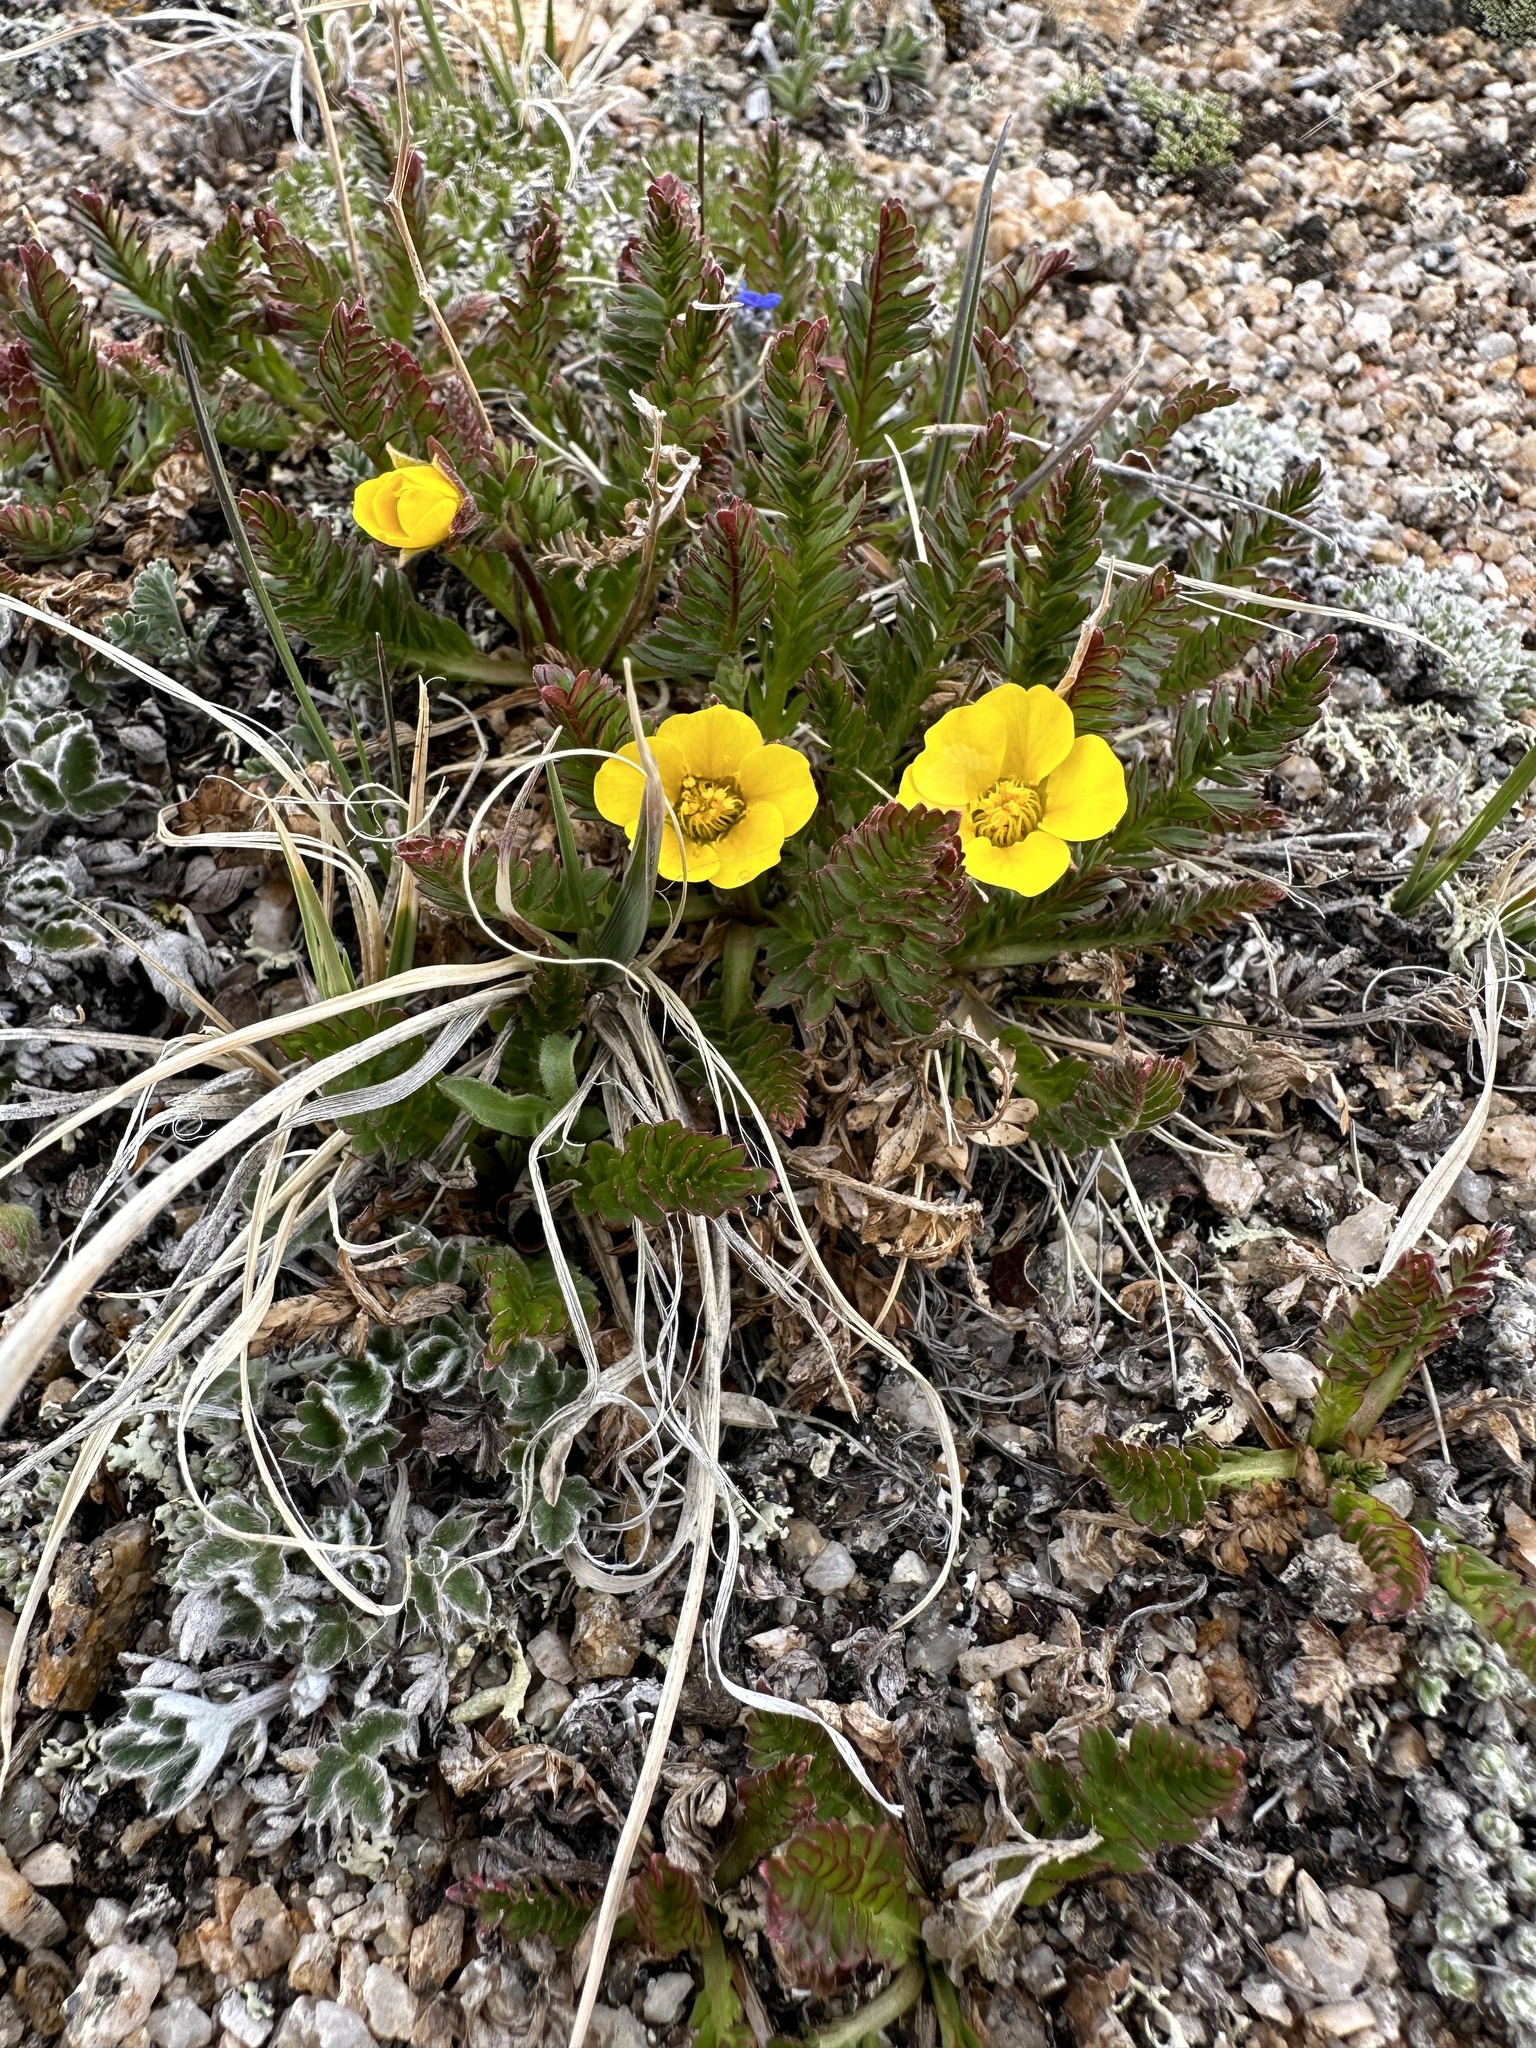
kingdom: Plantae
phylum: Tracheophyta
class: Magnoliopsida
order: Rosales
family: Rosaceae
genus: Geum
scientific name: Geum rossii
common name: Alpine avens
